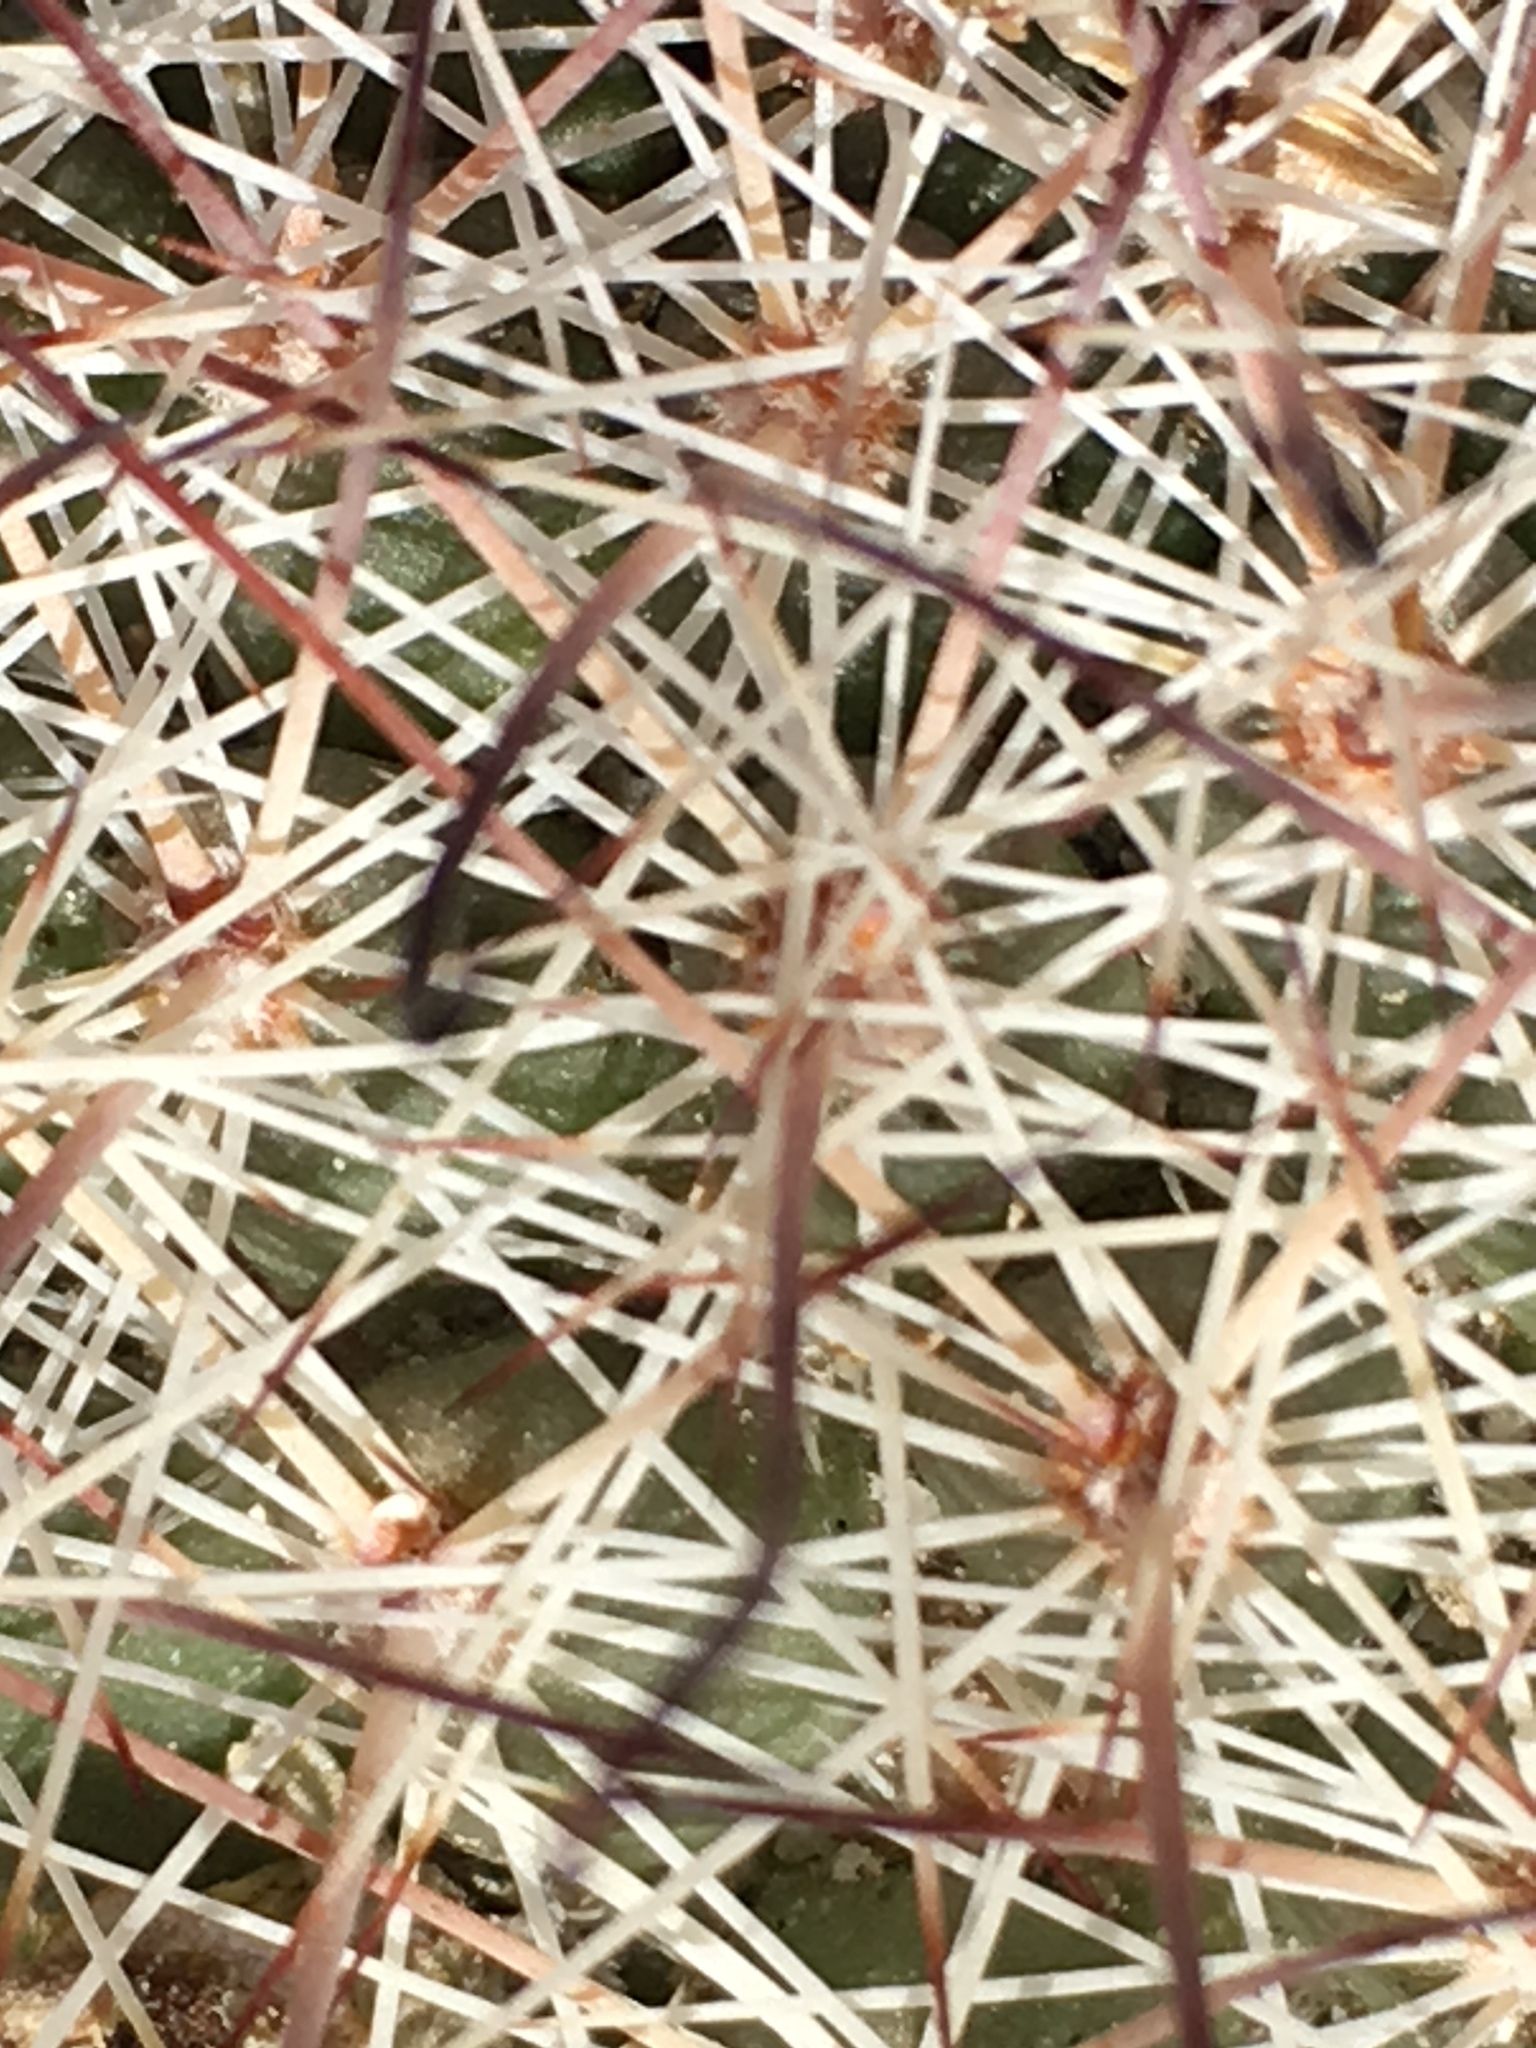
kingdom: Plantae
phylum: Tracheophyta
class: Magnoliopsida
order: Caryophyllales
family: Cactaceae
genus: Cochemiea
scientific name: Cochemiea dioica
